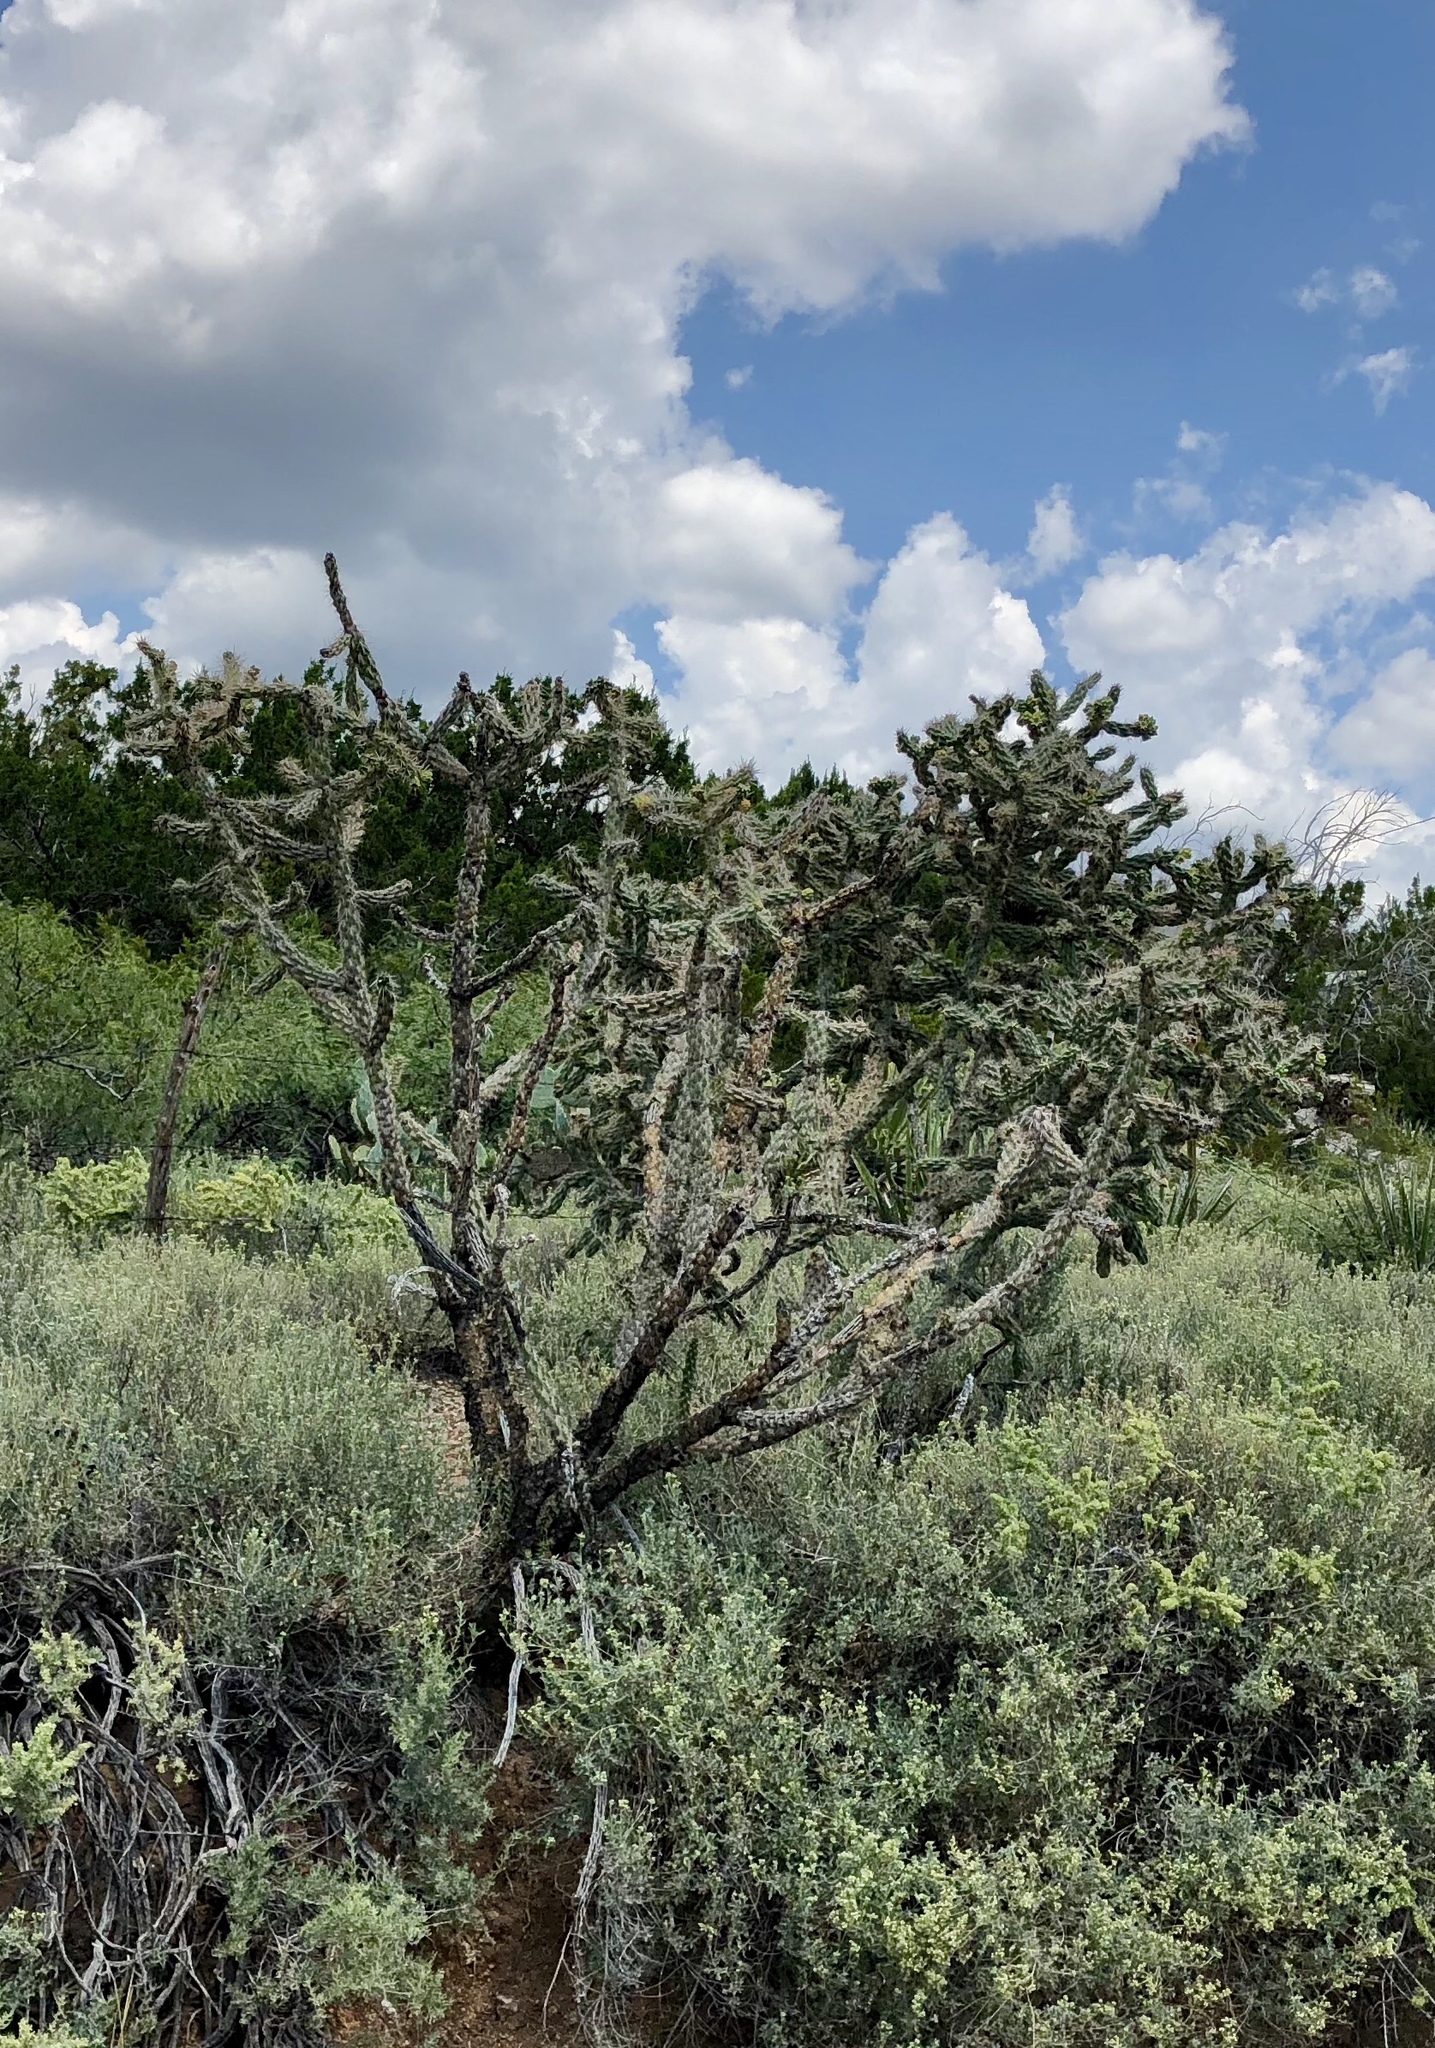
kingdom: Plantae
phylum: Tracheophyta
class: Magnoliopsida
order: Caryophyllales
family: Cactaceae
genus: Cylindropuntia
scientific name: Cylindropuntia imbricata
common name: Candelabrum cactus
